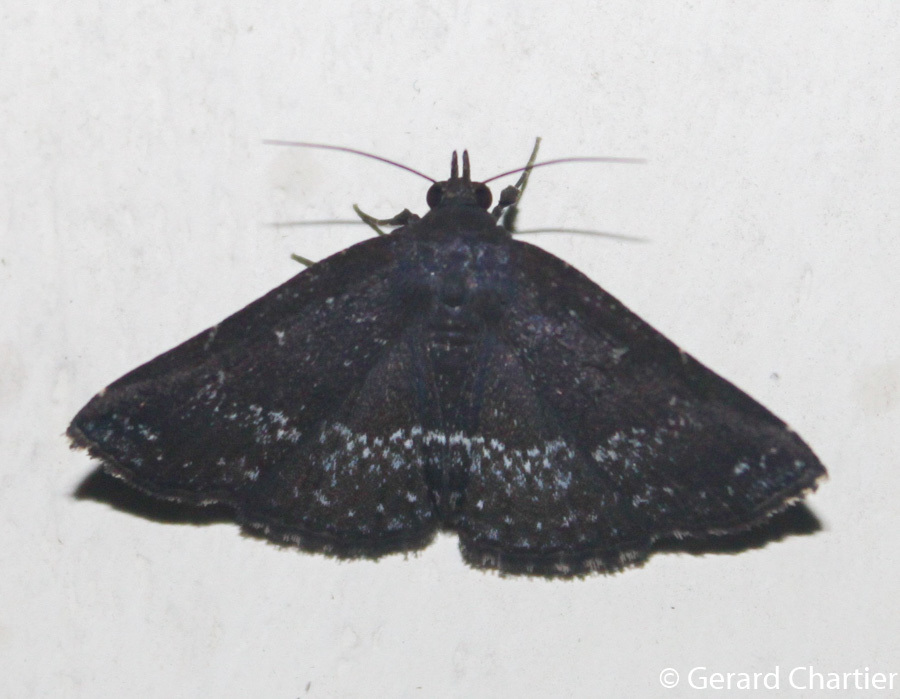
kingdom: Animalia
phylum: Arthropoda
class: Insecta
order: Lepidoptera
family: Erebidae
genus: Adrapsa
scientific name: Adrapsa geometroides
